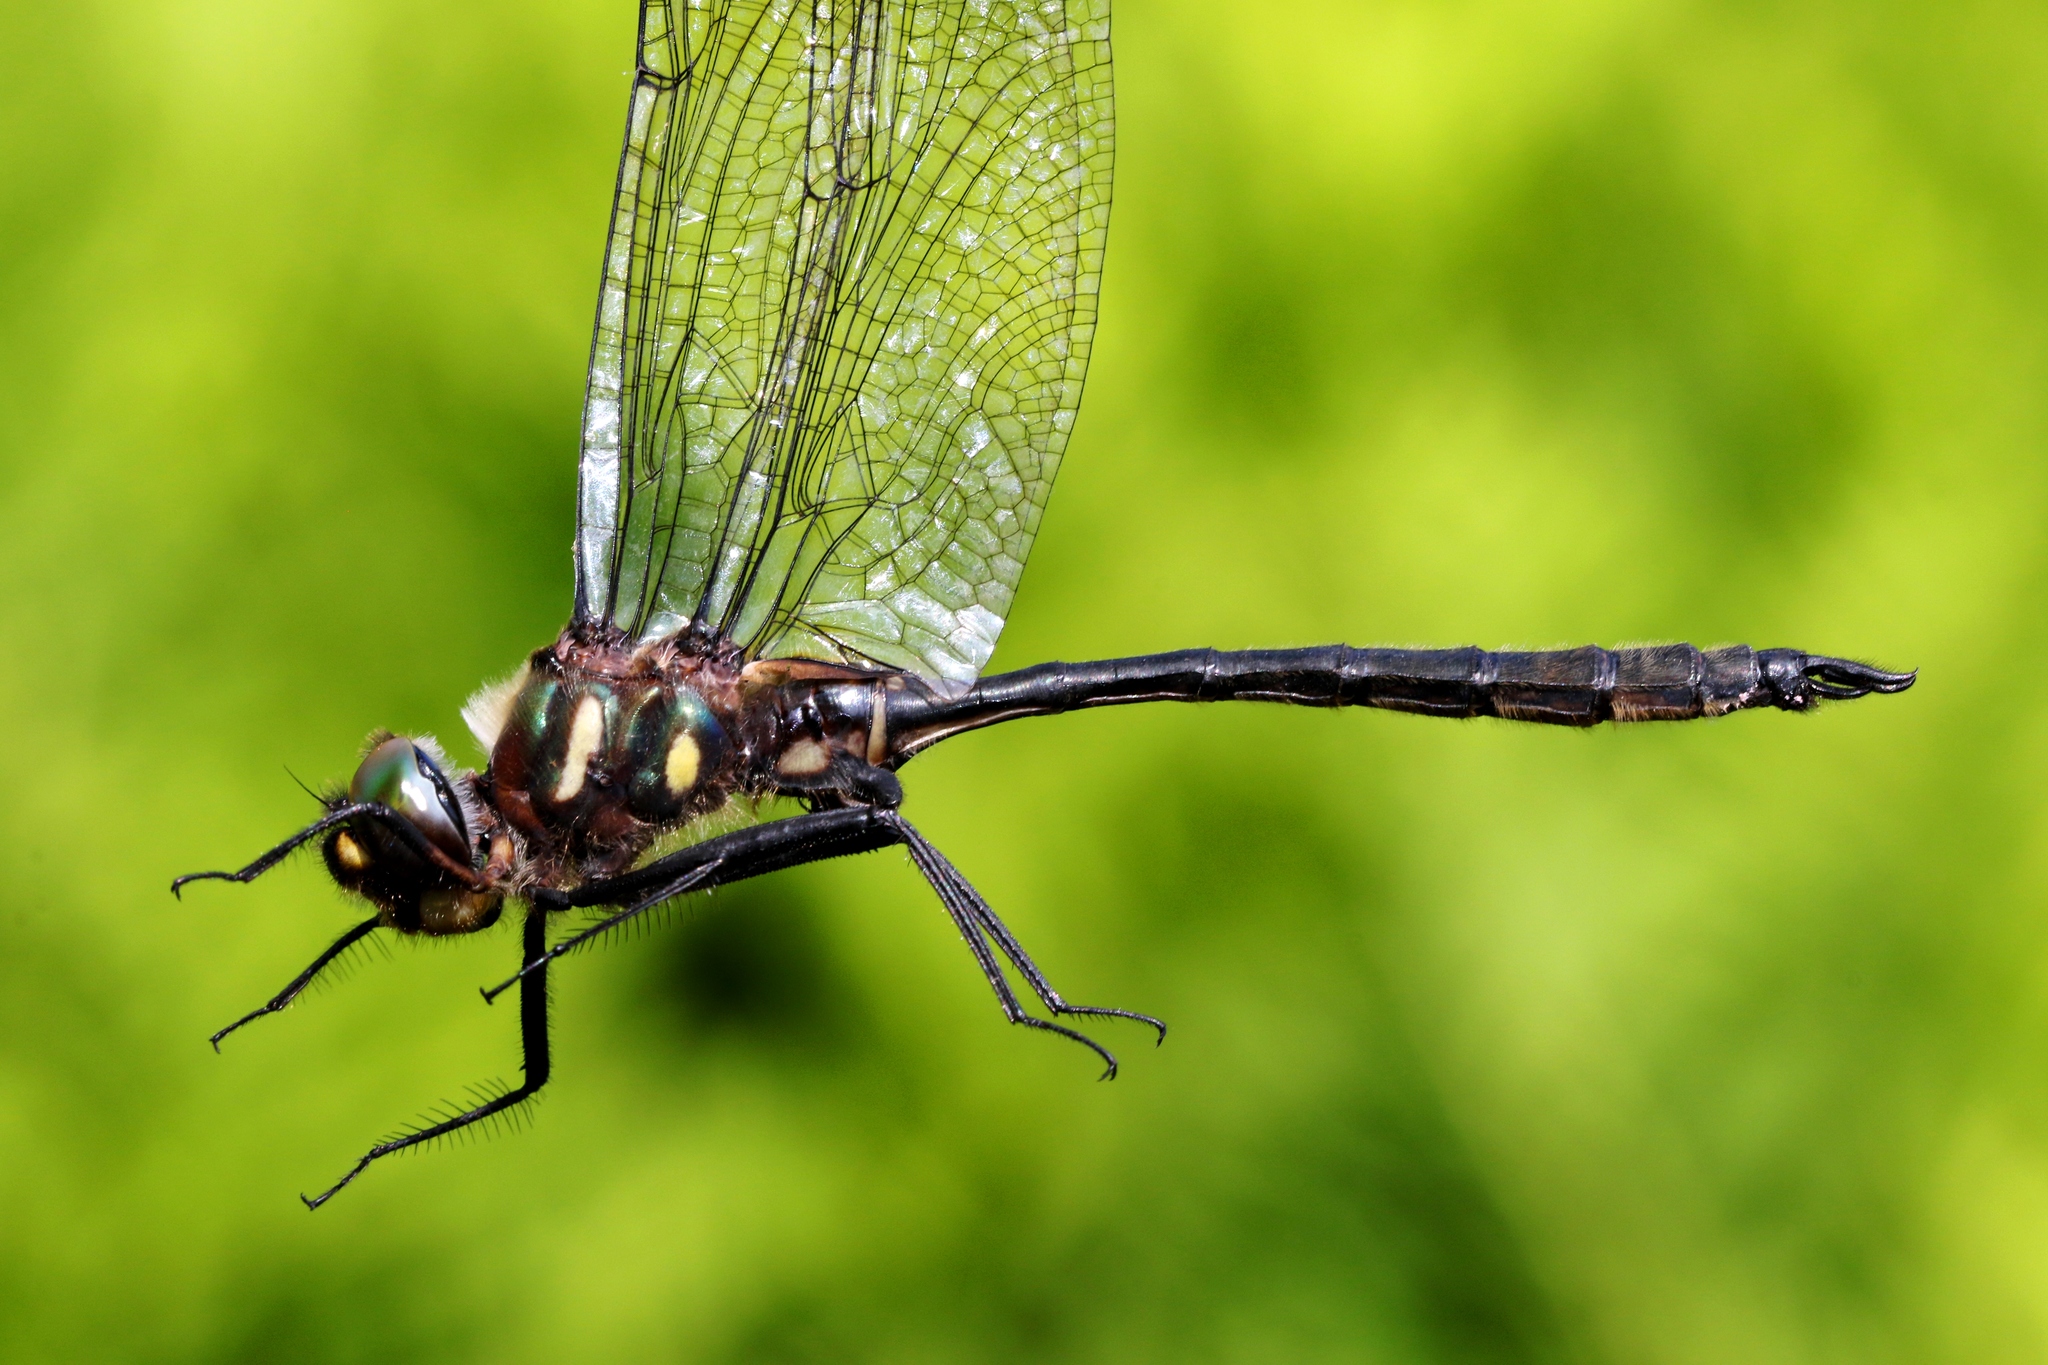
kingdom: Animalia
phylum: Arthropoda
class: Insecta
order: Odonata
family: Corduliidae
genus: Somatochlora
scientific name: Somatochlora elongata
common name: Ski-tipped emerald
